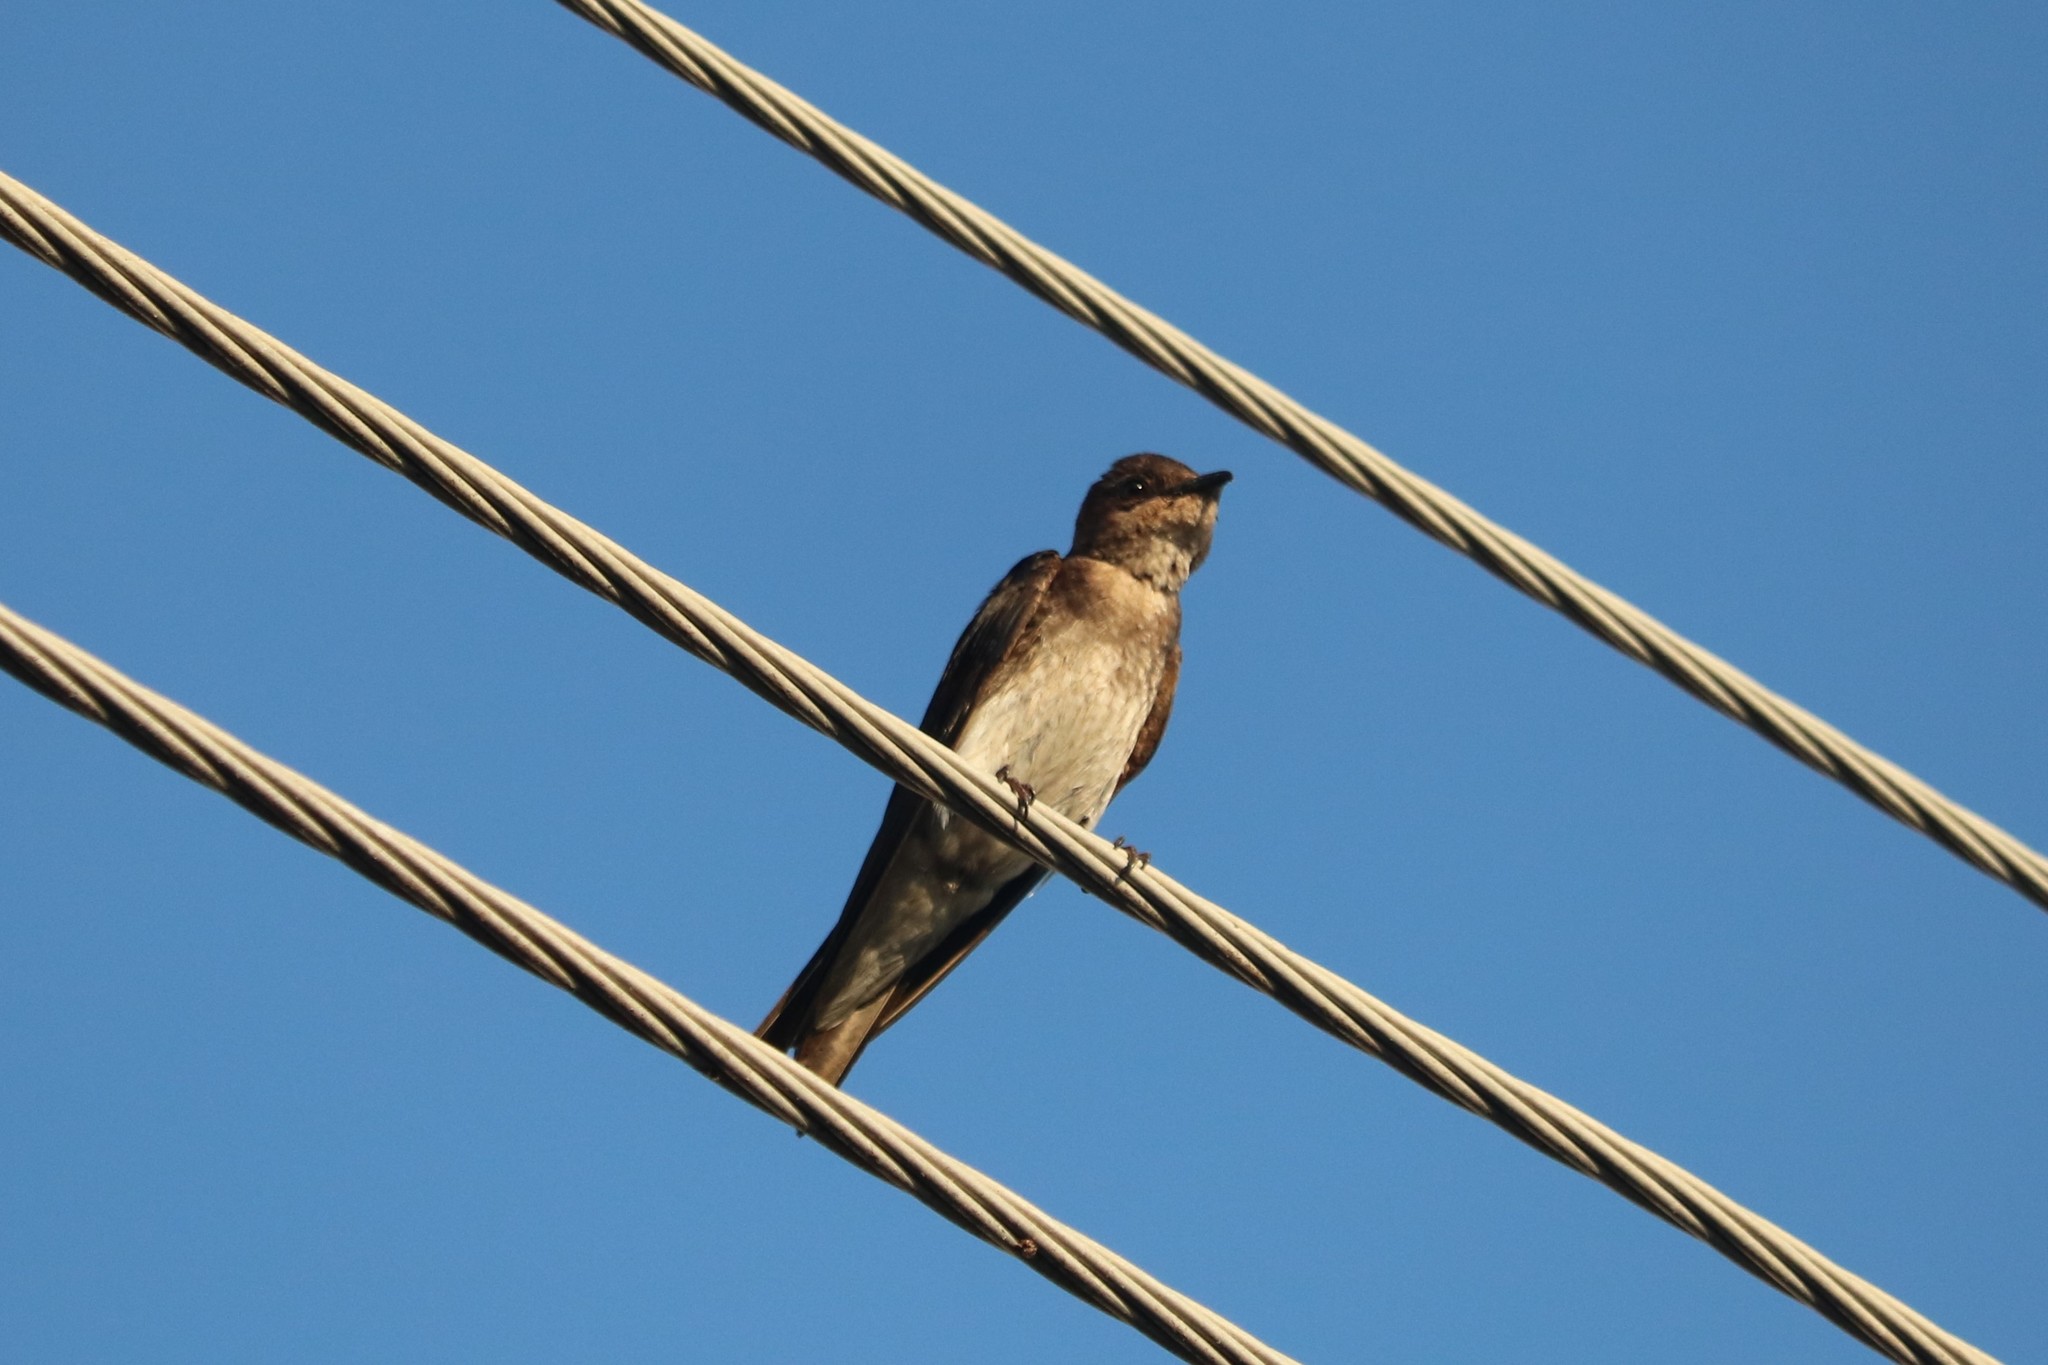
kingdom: Animalia
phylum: Chordata
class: Aves
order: Passeriformes
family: Hirundinidae
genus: Progne
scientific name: Progne chalybea
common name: Grey-breasted martin
